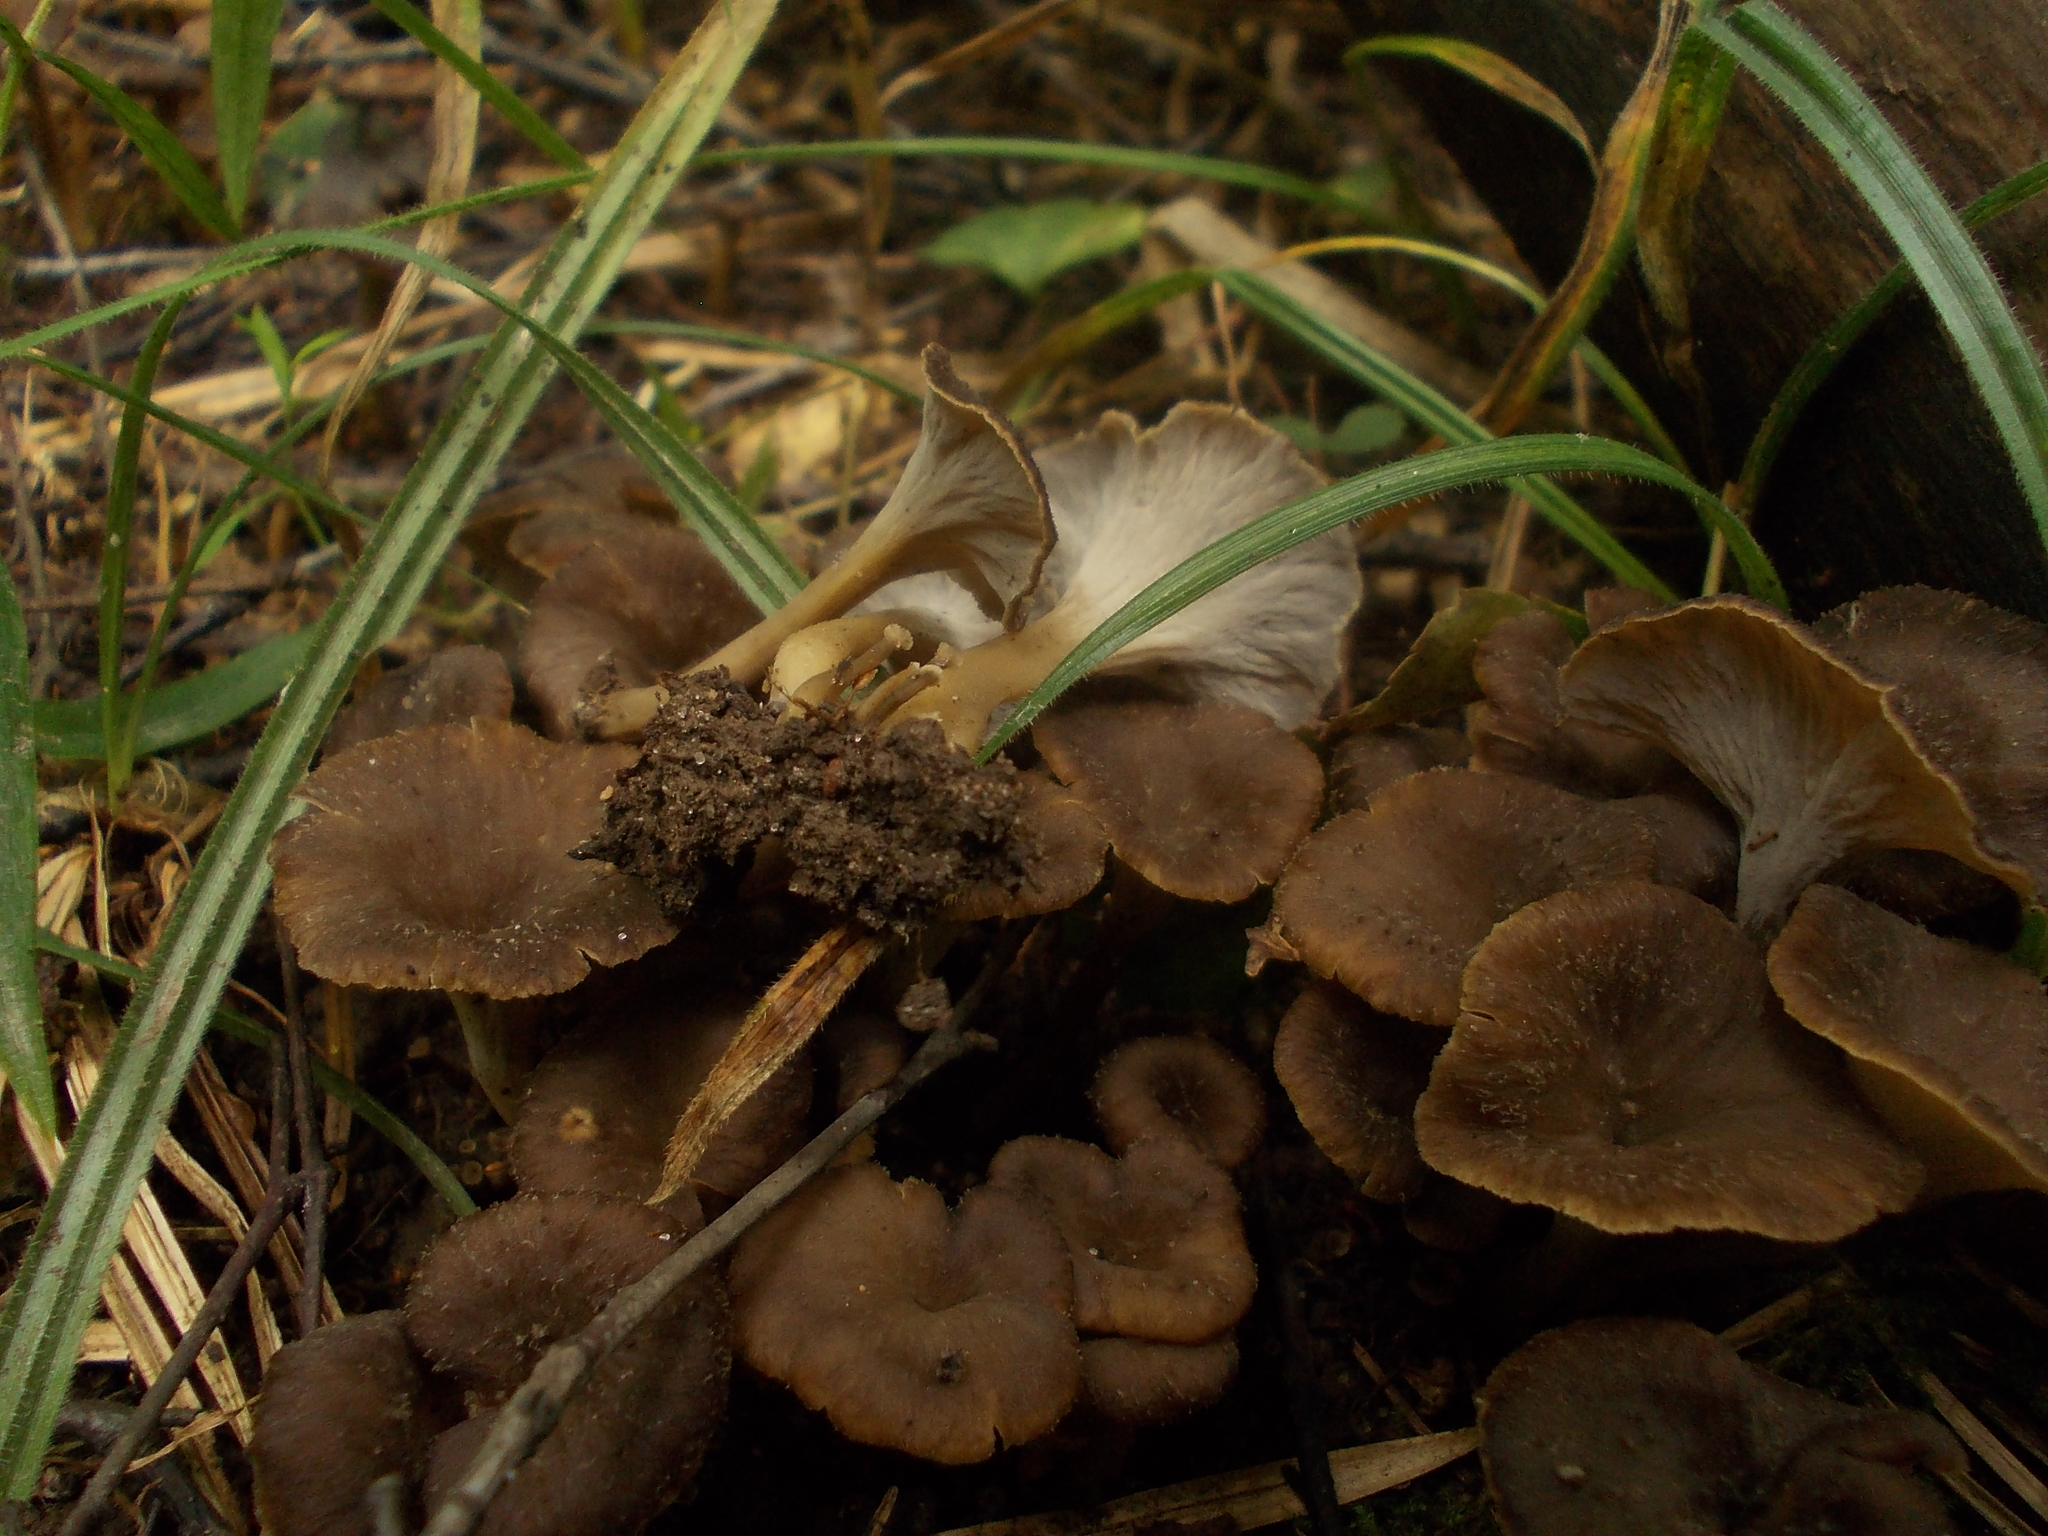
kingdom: Fungi
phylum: Basidiomycota
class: Agaricomycetes
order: Cantharellales
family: Hydnaceae
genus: Craterellus
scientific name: Craterellus undulatus
